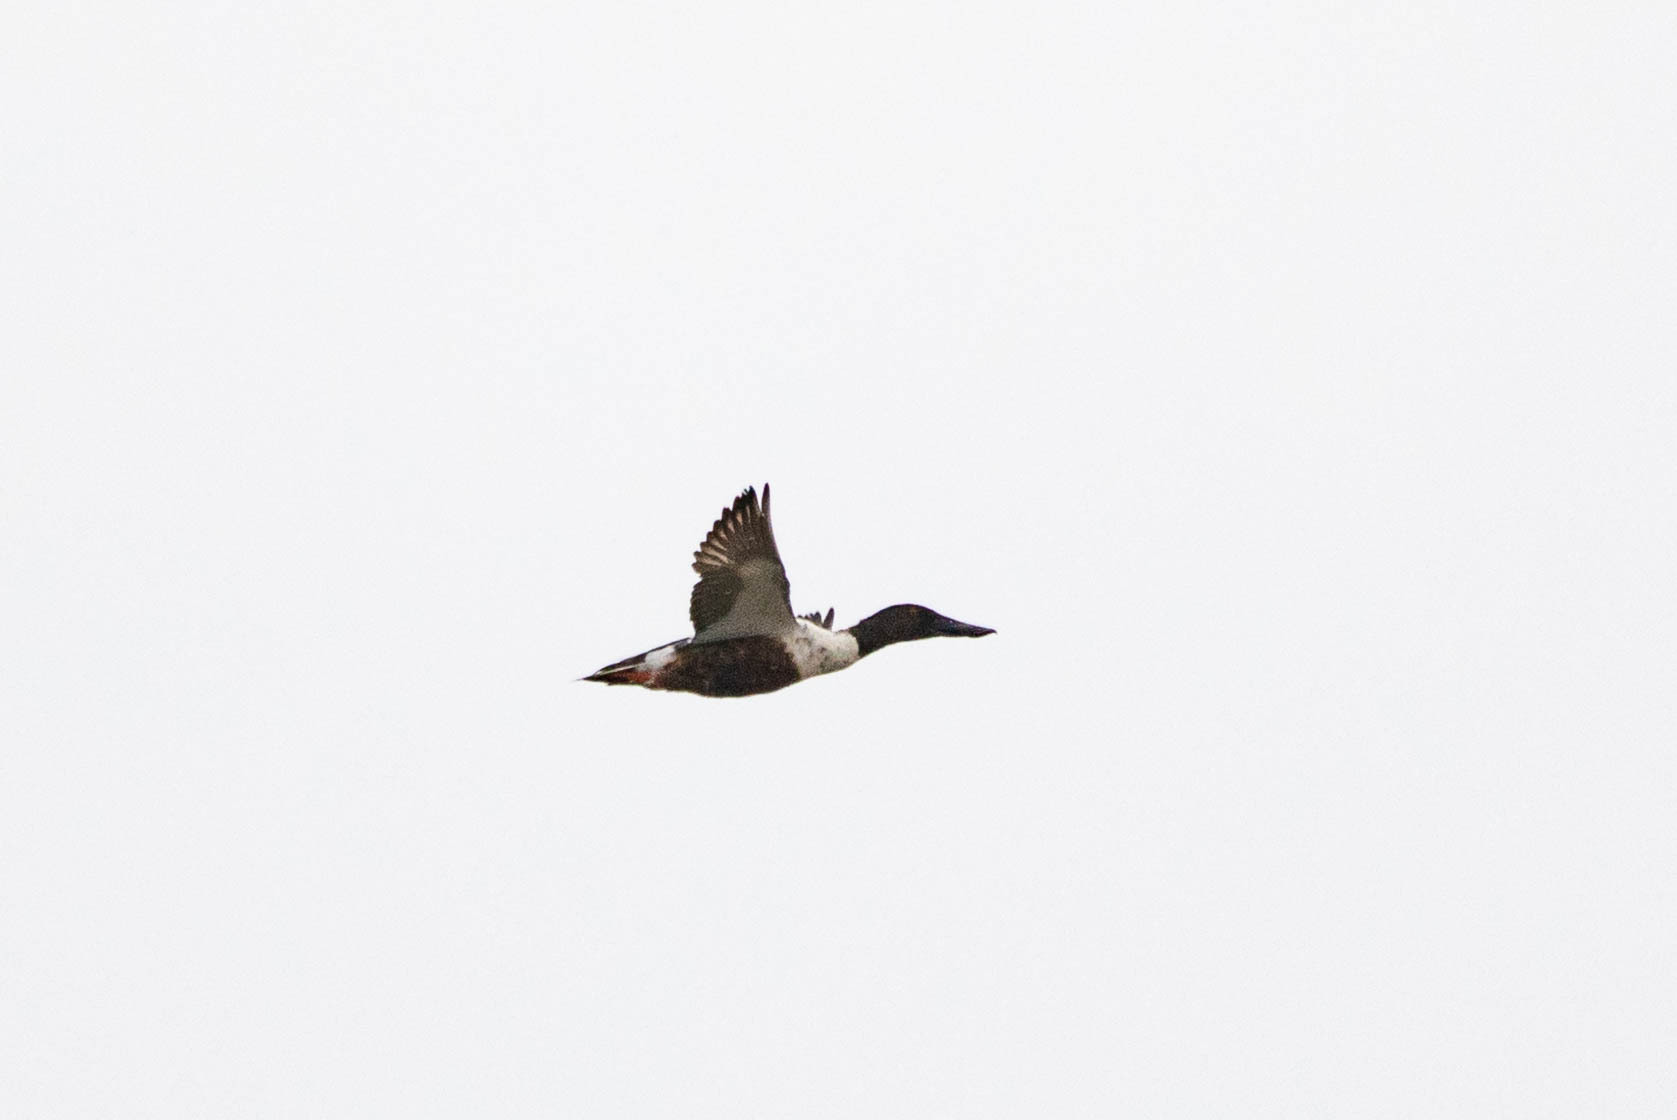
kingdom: Animalia
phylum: Chordata
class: Aves
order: Anseriformes
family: Anatidae
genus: Spatula
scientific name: Spatula clypeata
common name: Northern shoveler
